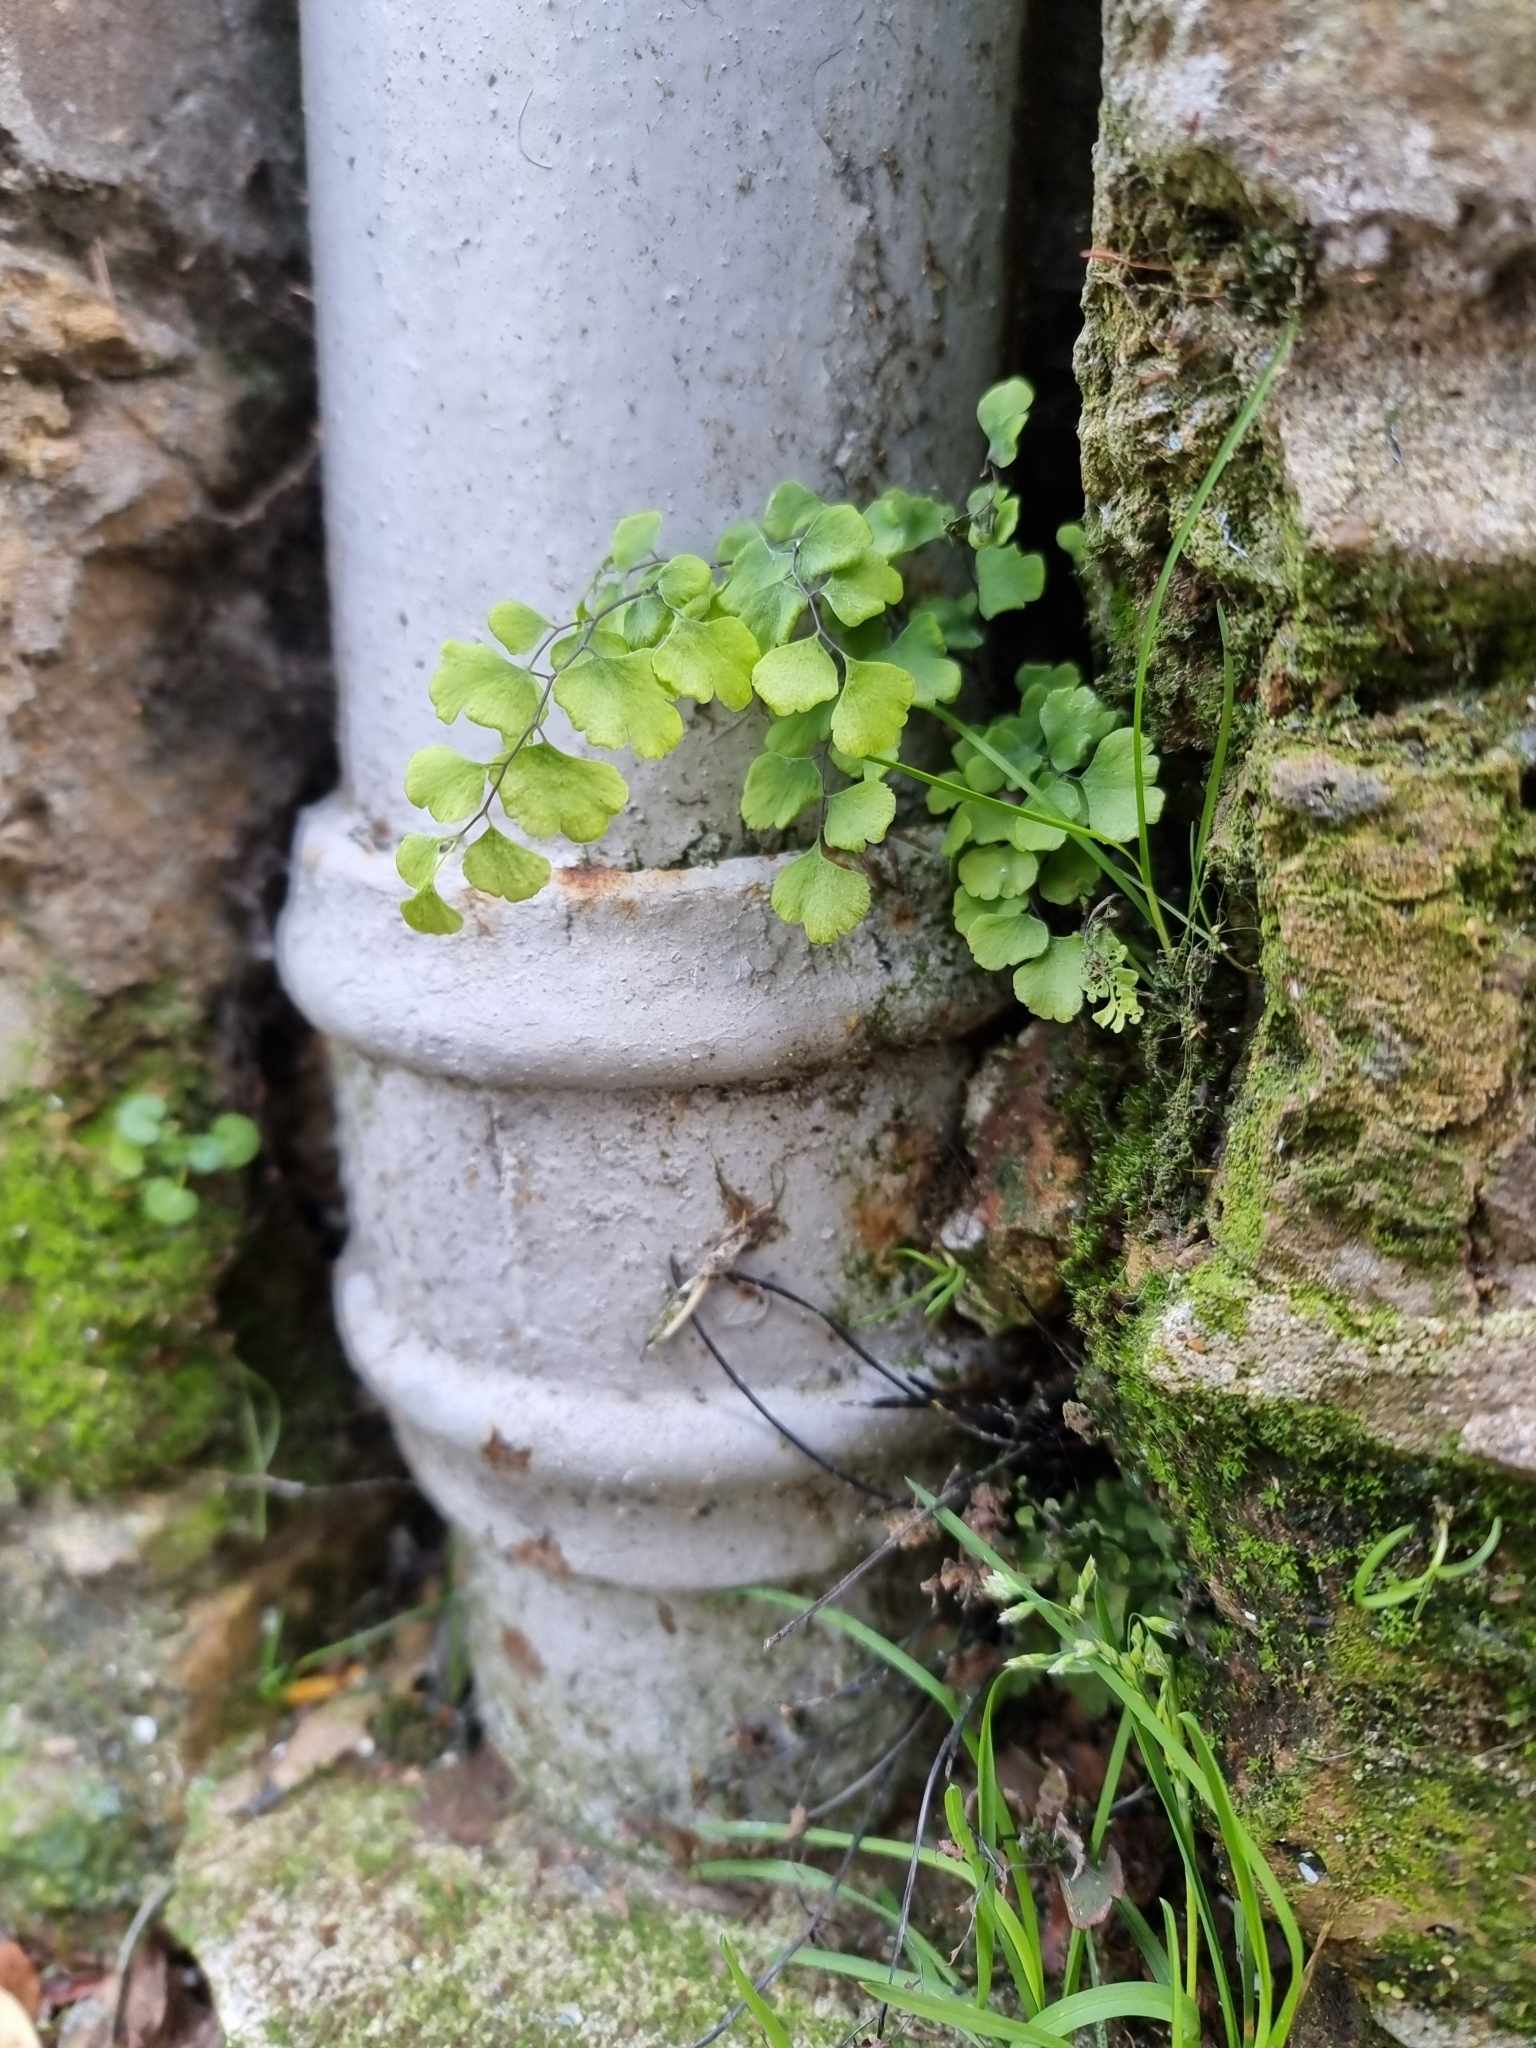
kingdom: Plantae
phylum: Tracheophyta
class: Polypodiopsida
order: Polypodiales
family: Pteridaceae
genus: Adiantum
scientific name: Adiantum capillus-veneris
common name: Maidenhair fern
